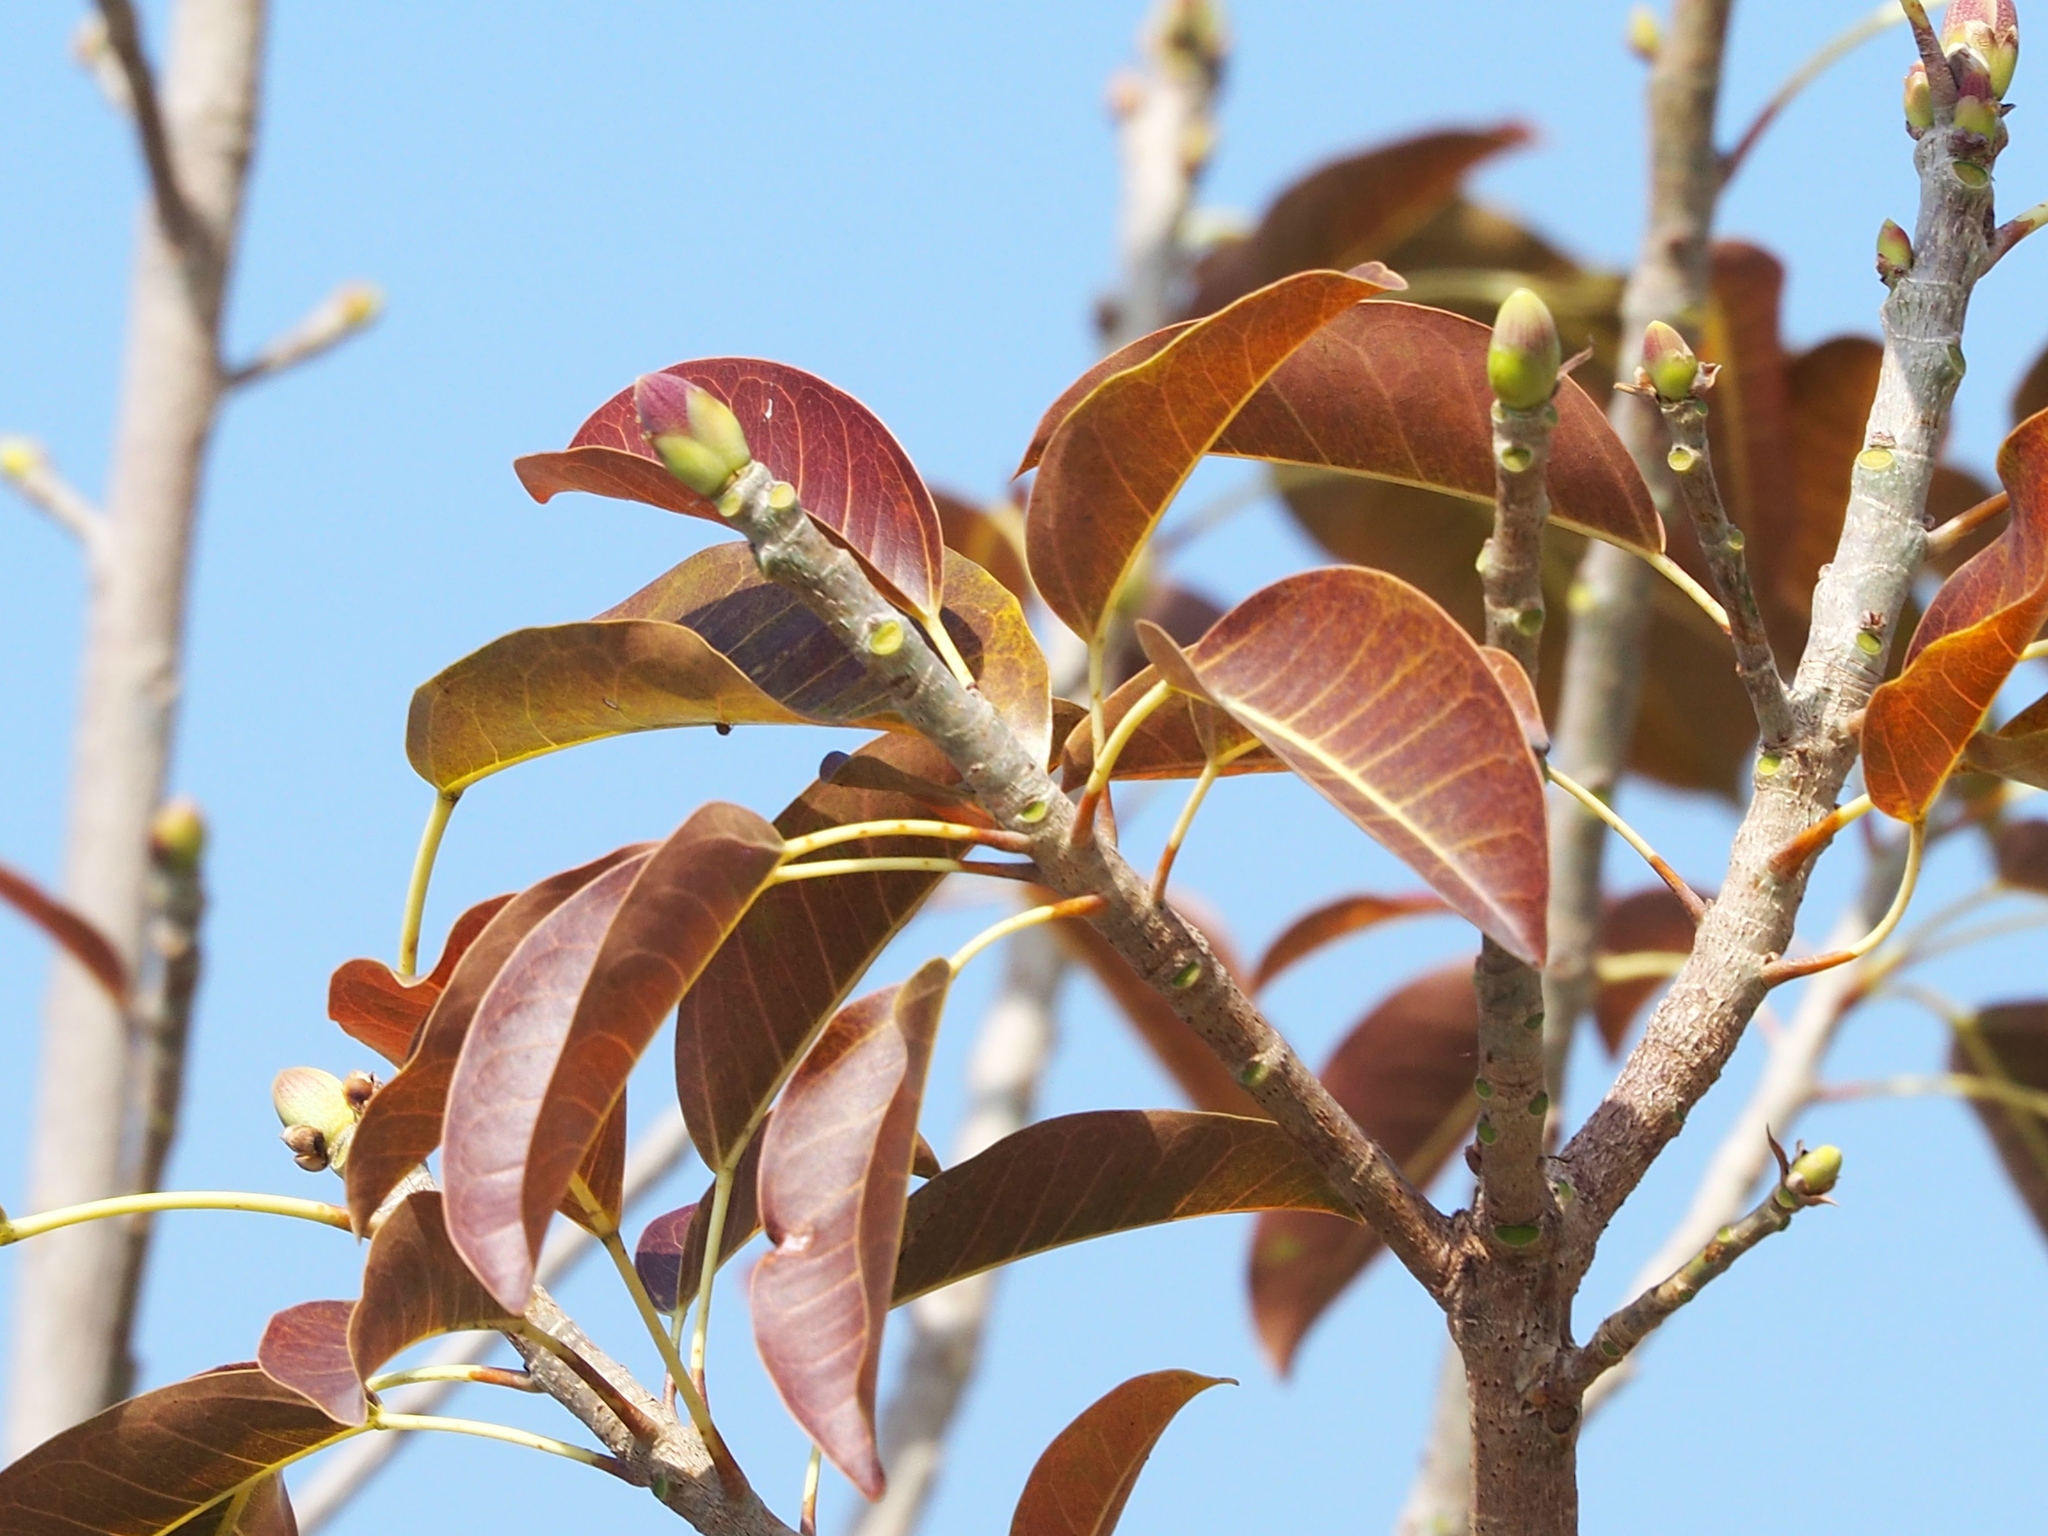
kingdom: Plantae
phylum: Tracheophyta
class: Magnoliopsida
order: Rosales
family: Moraceae
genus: Ficus
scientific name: Ficus subpisocarpa
